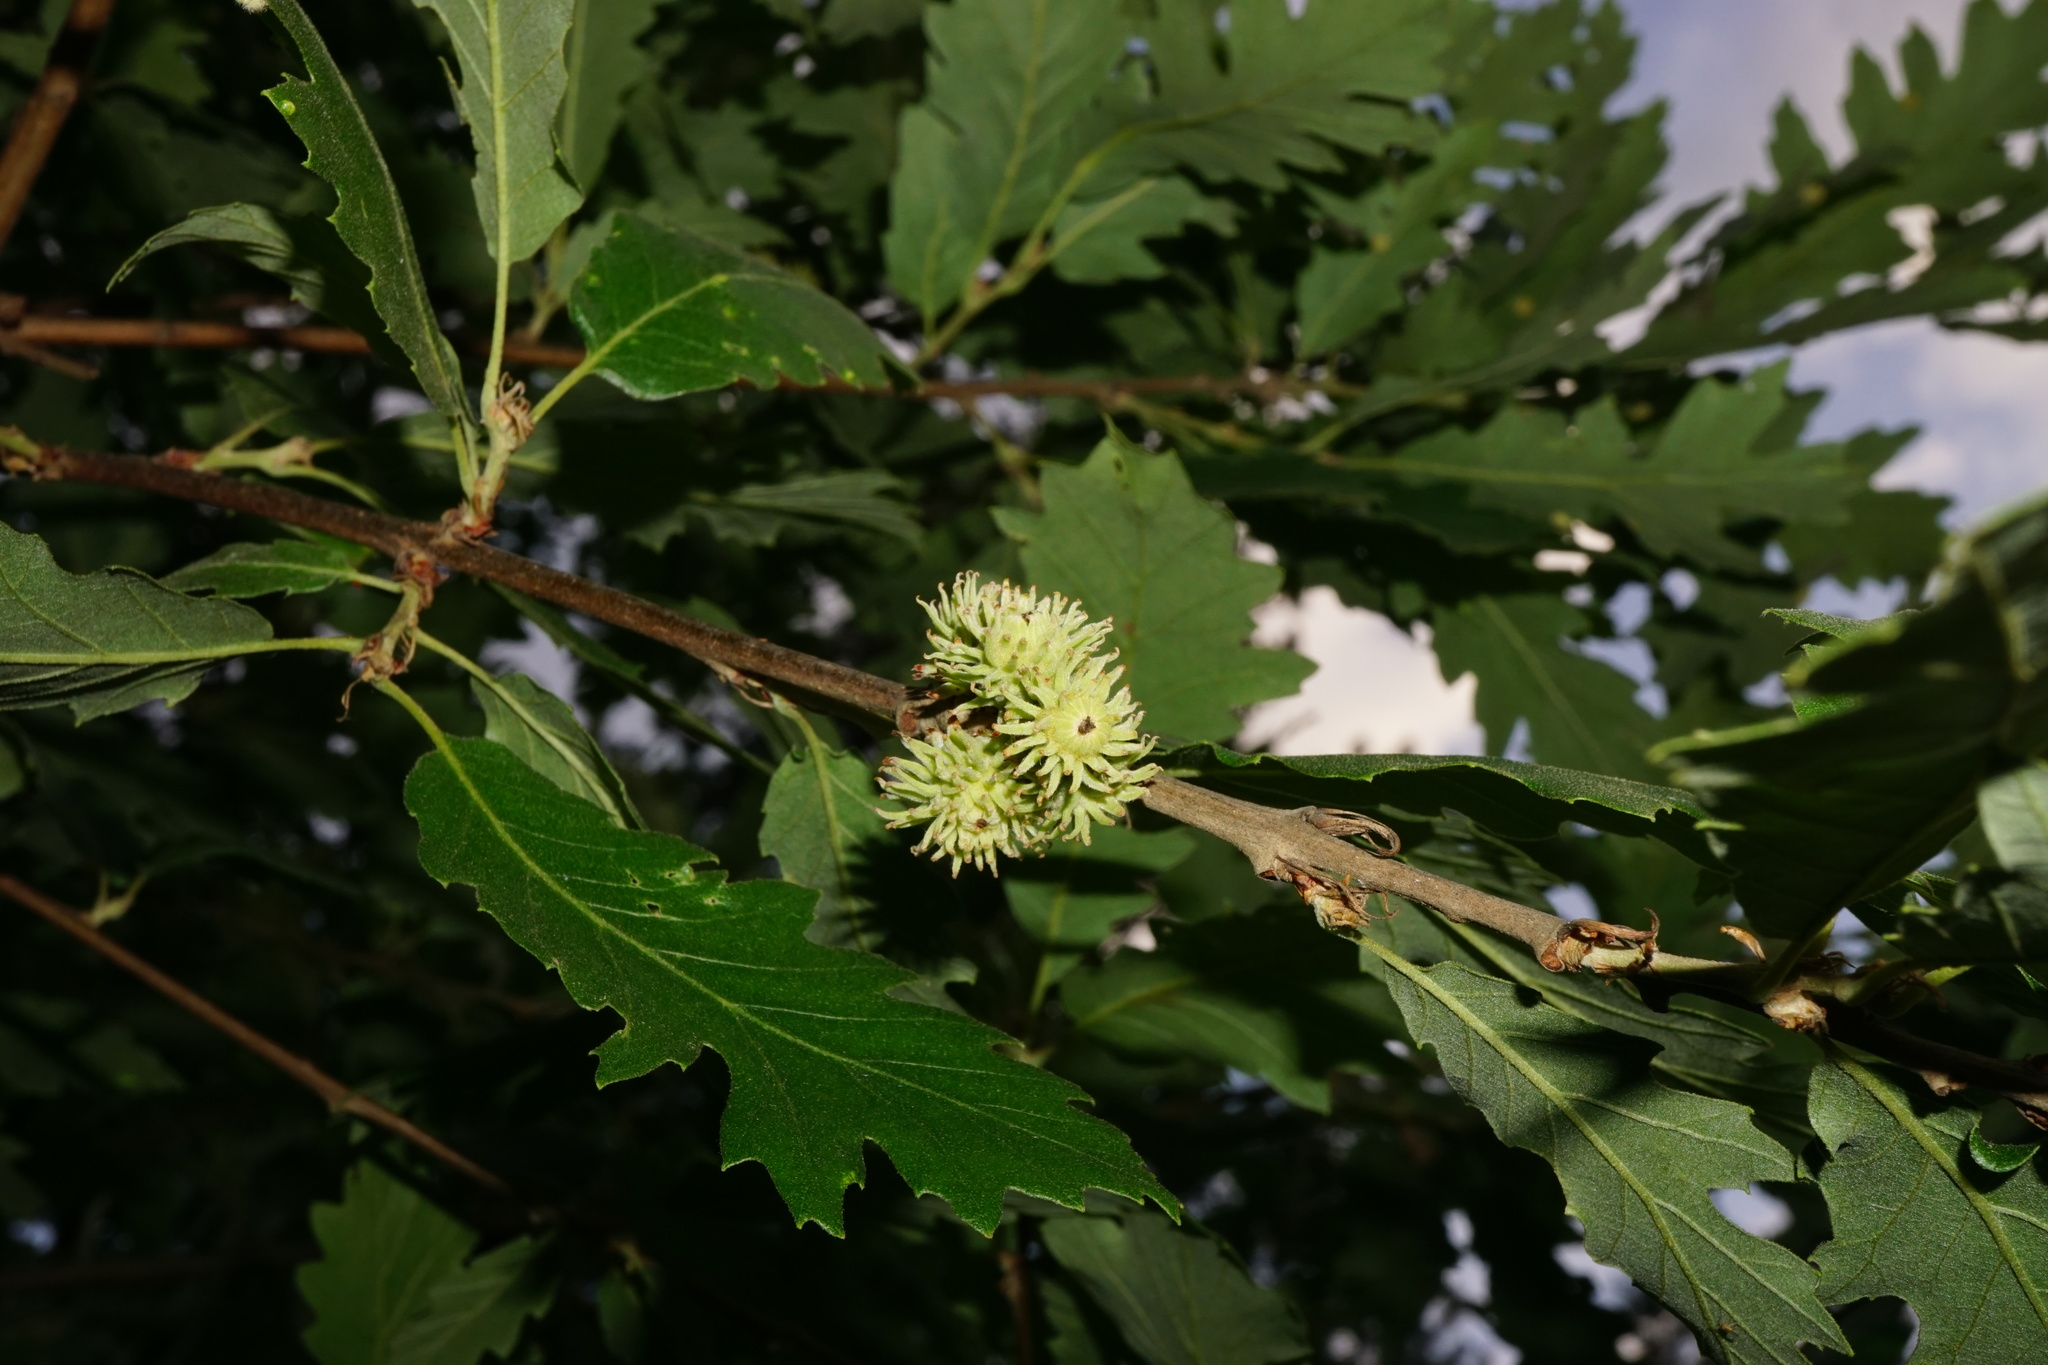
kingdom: Plantae
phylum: Tracheophyta
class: Magnoliopsida
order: Fagales
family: Fagaceae
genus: Quercus
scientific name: Quercus cerris
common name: Turkey oak
